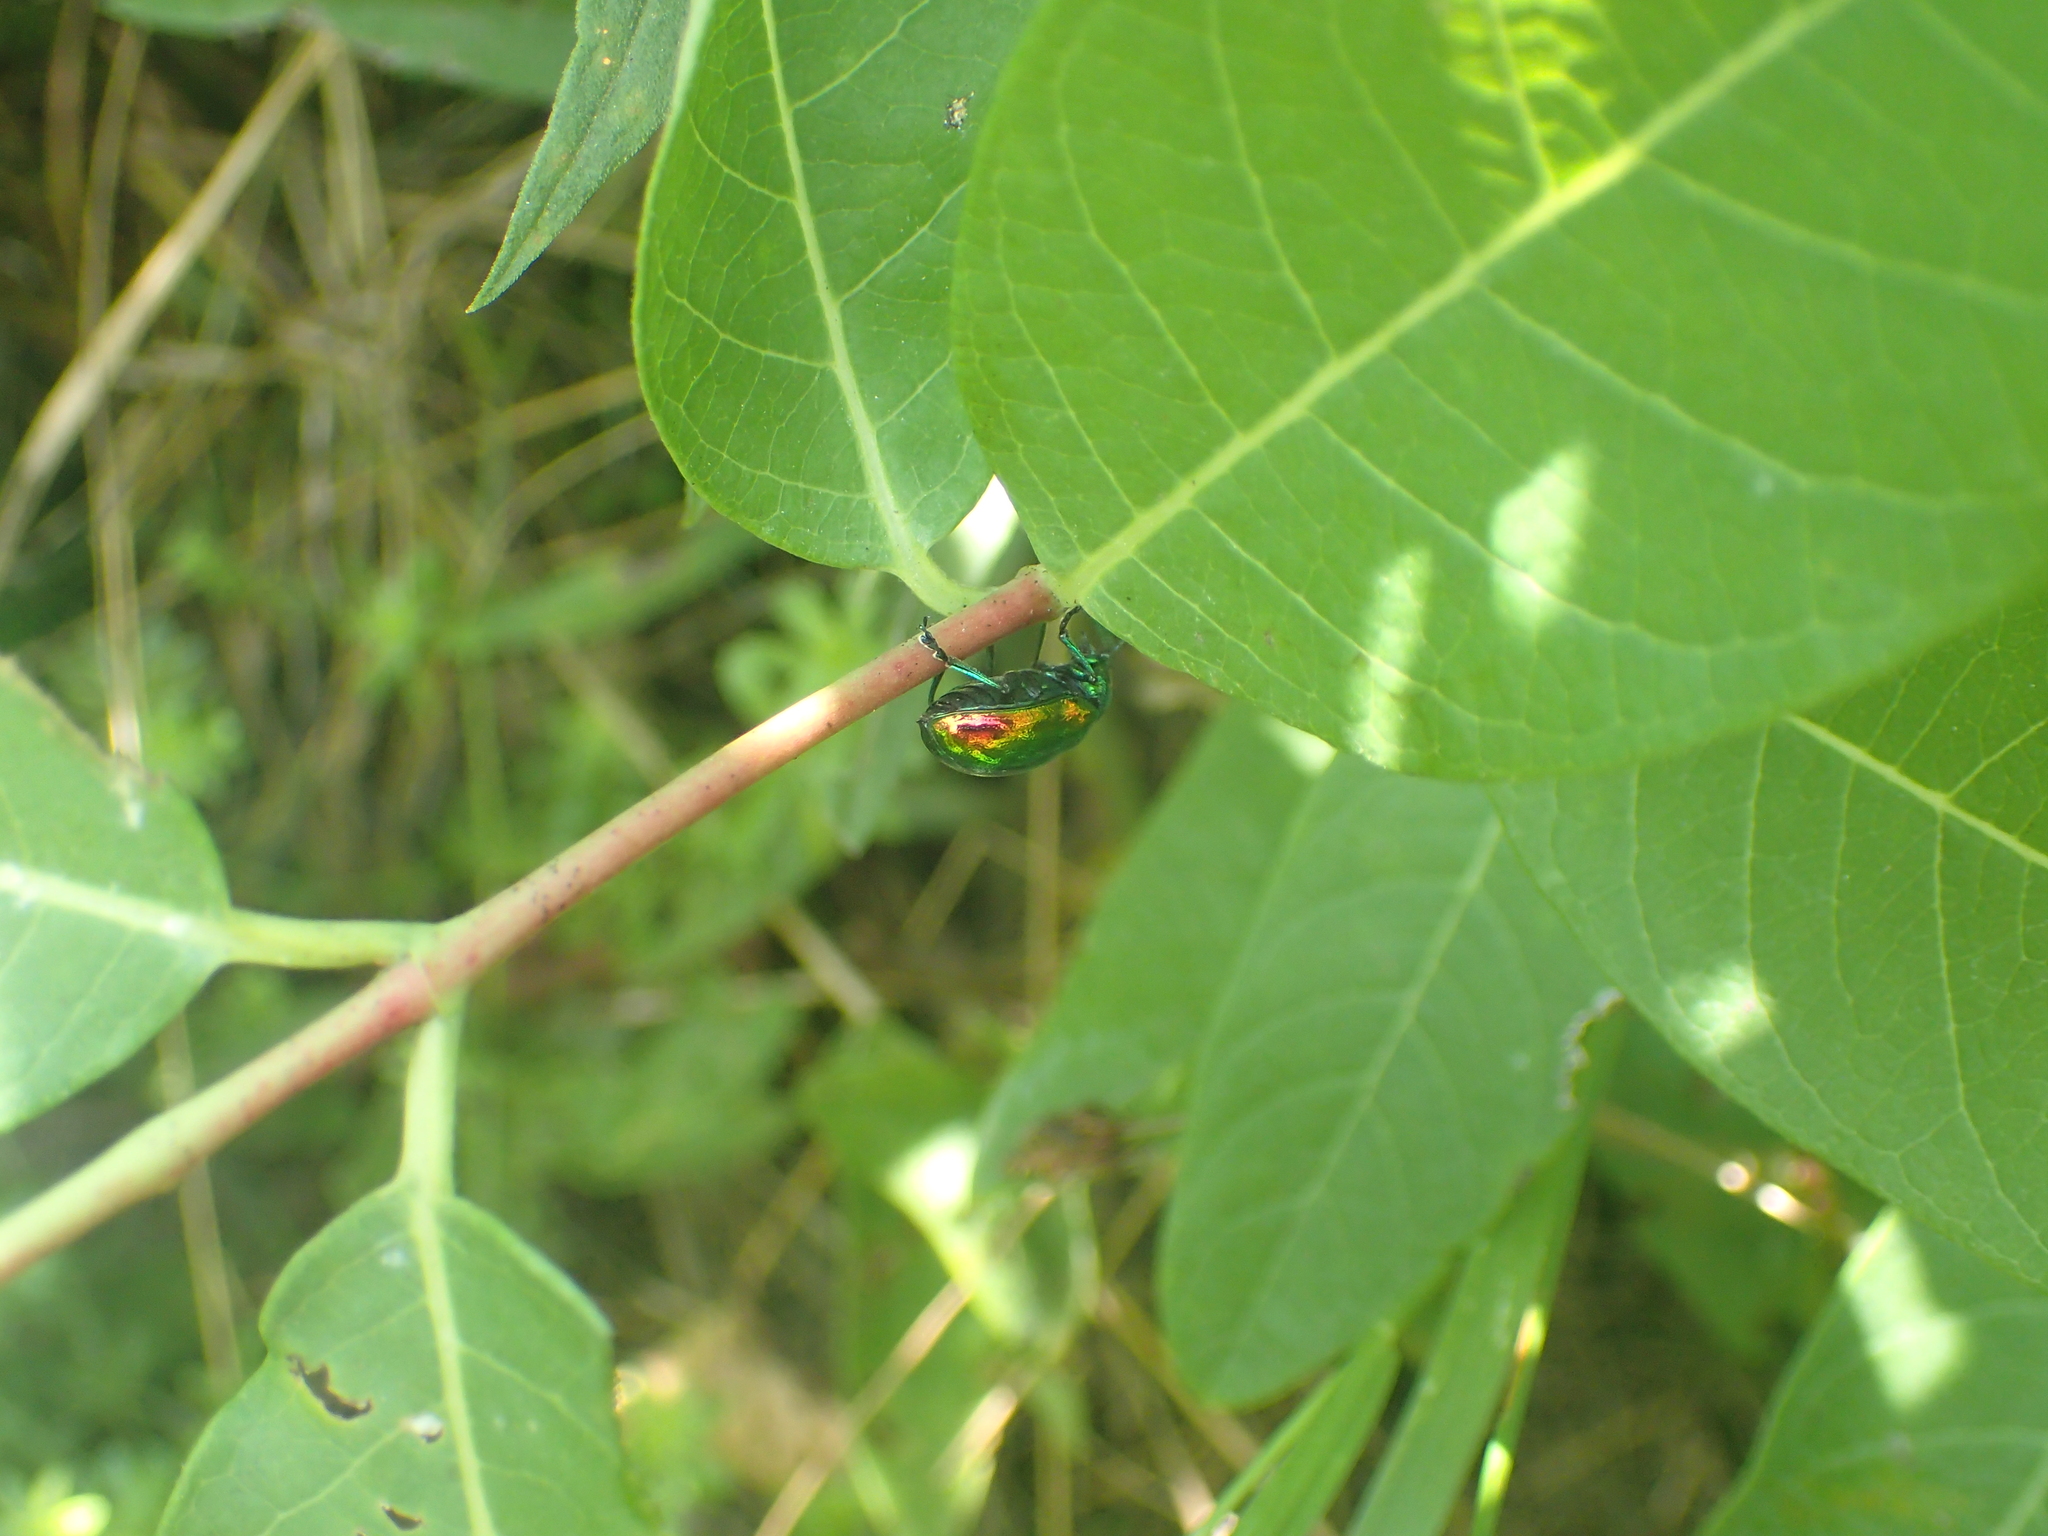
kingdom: Animalia
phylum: Arthropoda
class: Insecta
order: Coleoptera
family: Chrysomelidae
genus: Chrysochus
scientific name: Chrysochus auratus
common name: Dogbane leaf beetle
